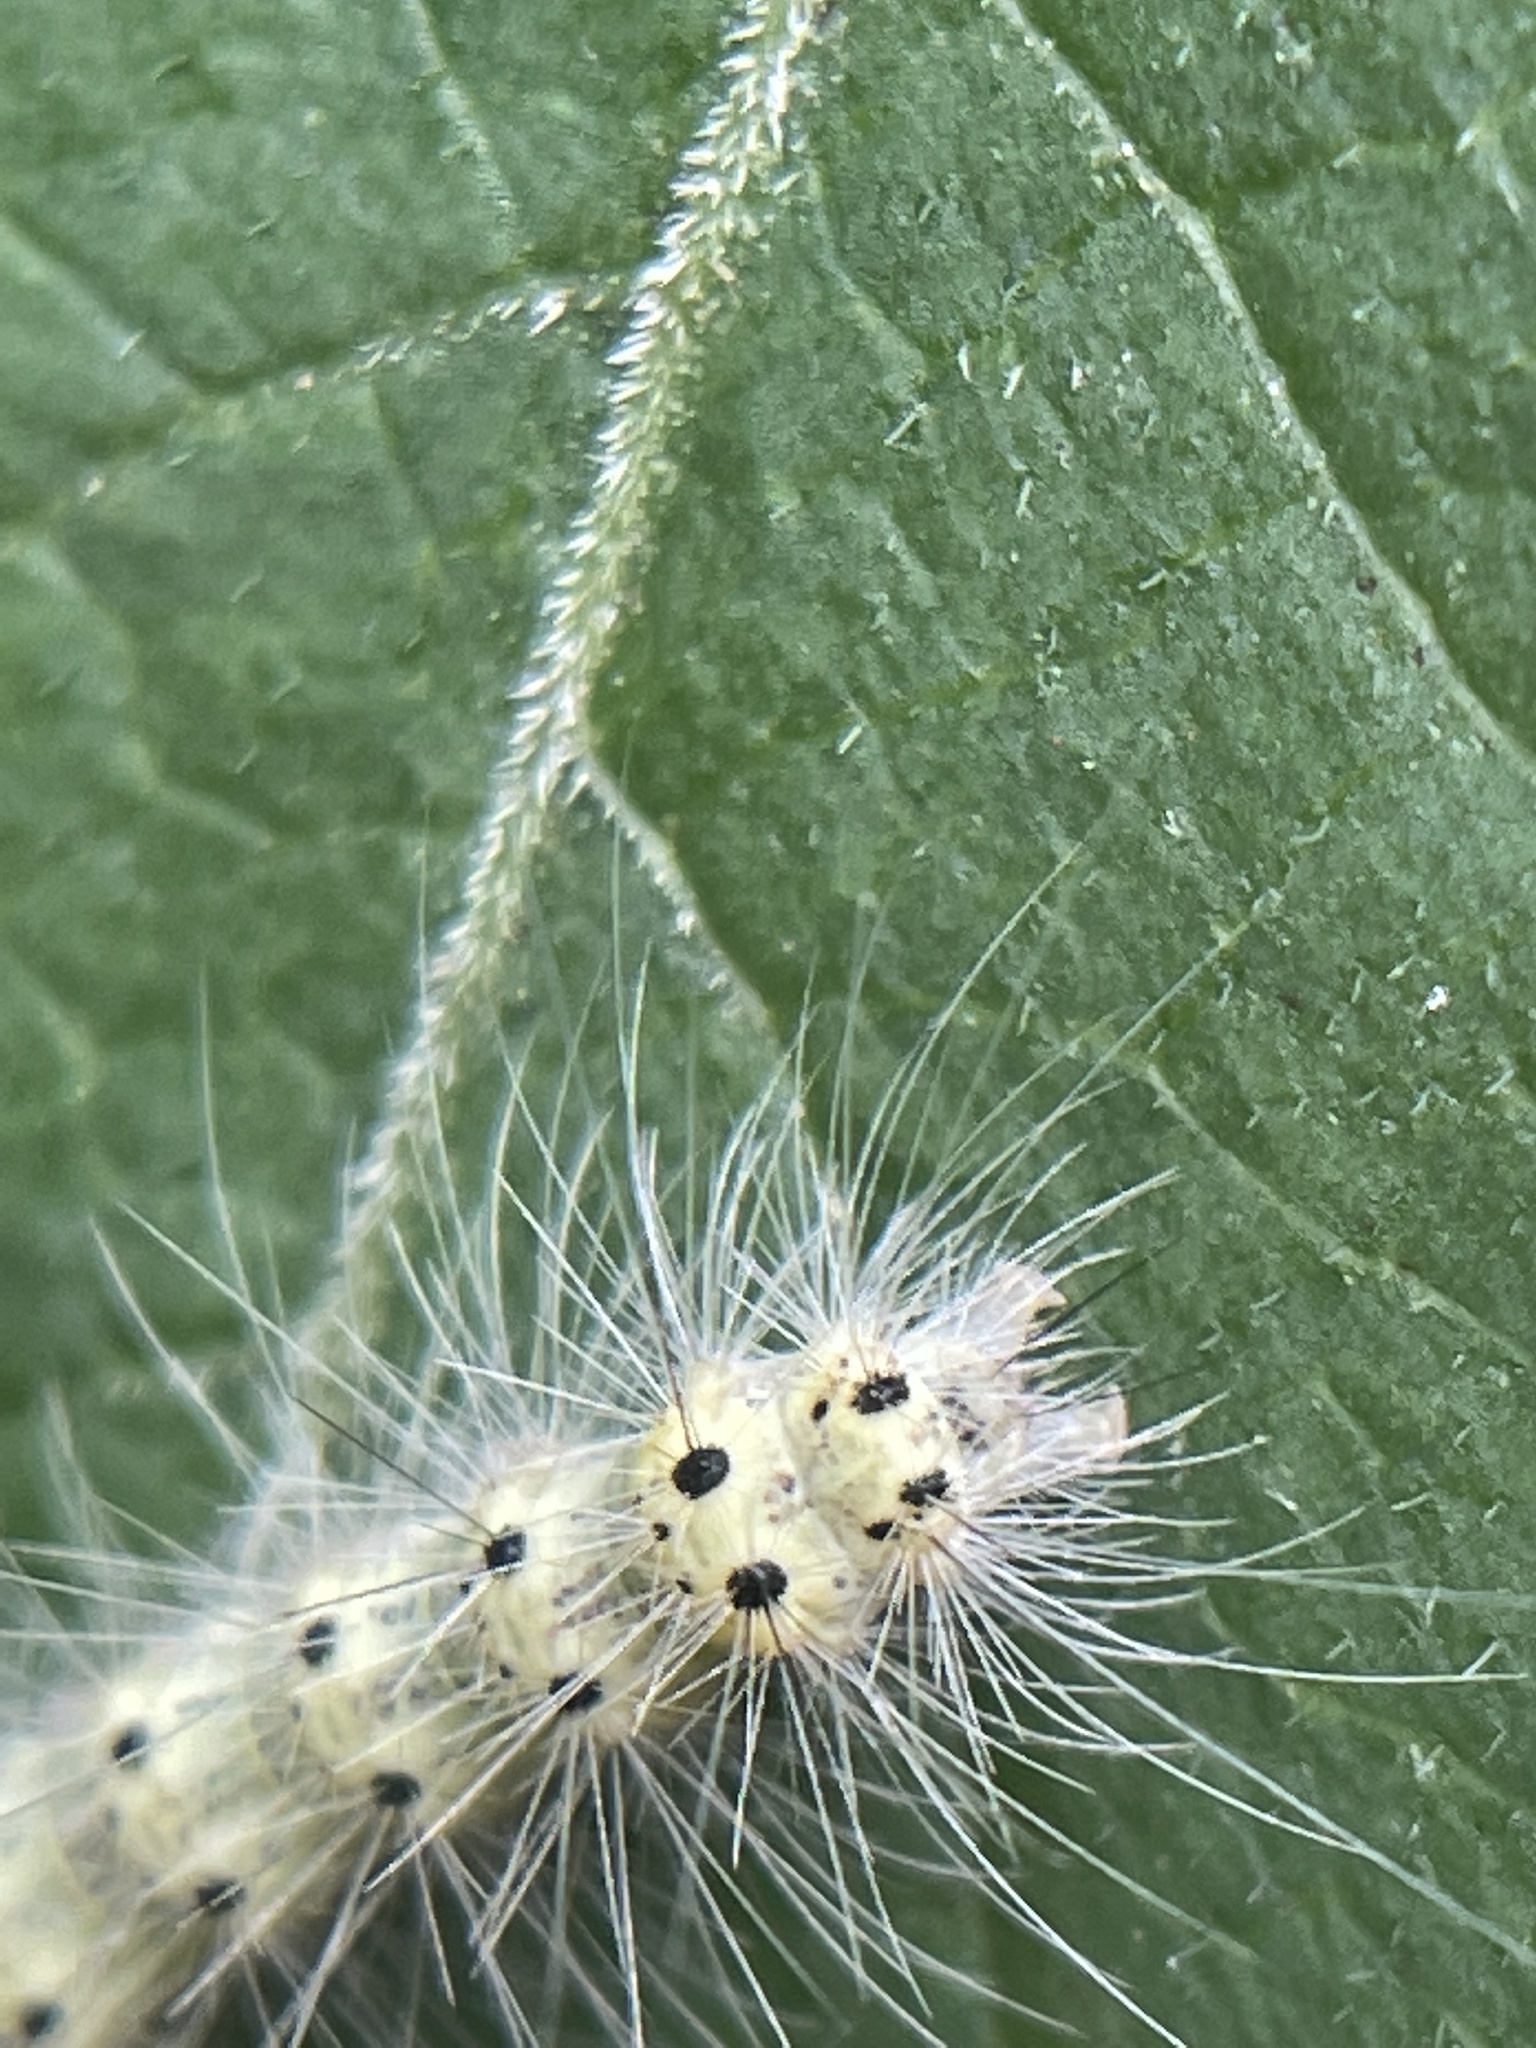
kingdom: Animalia
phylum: Arthropoda
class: Insecta
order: Lepidoptera
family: Erebidae
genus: Hyphantria
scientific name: Hyphantria cunea
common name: American white moth
